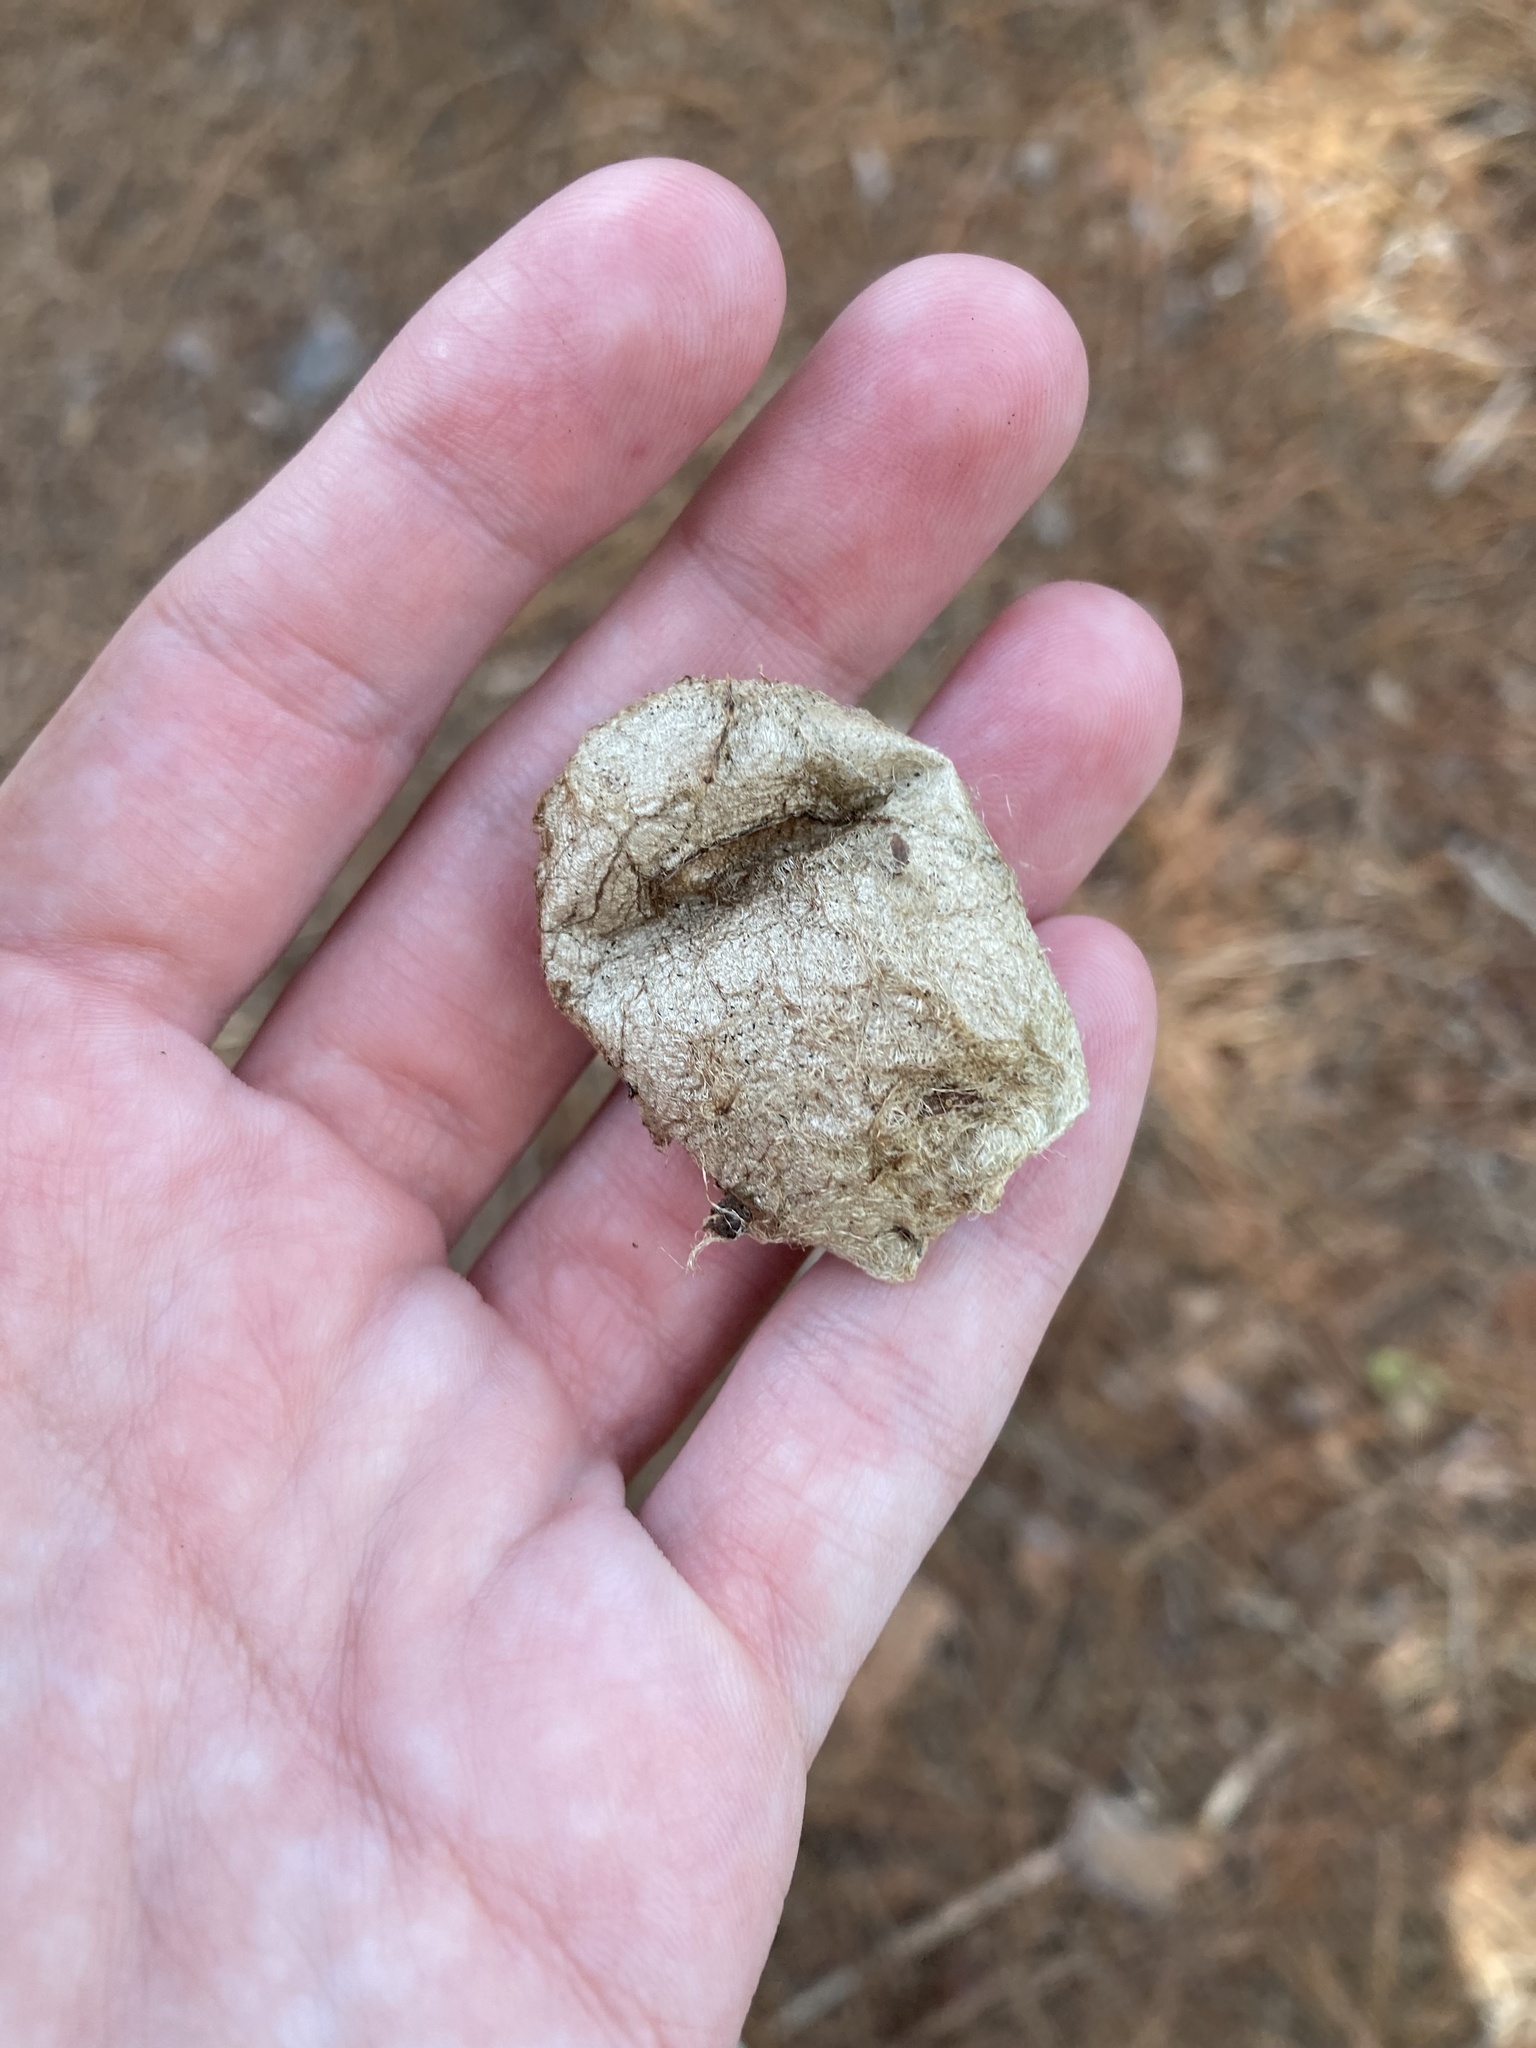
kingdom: Animalia
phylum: Arthropoda
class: Insecta
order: Lepidoptera
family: Saturniidae
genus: Antheraea
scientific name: Antheraea polyphemus
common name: Polyphemus moth
